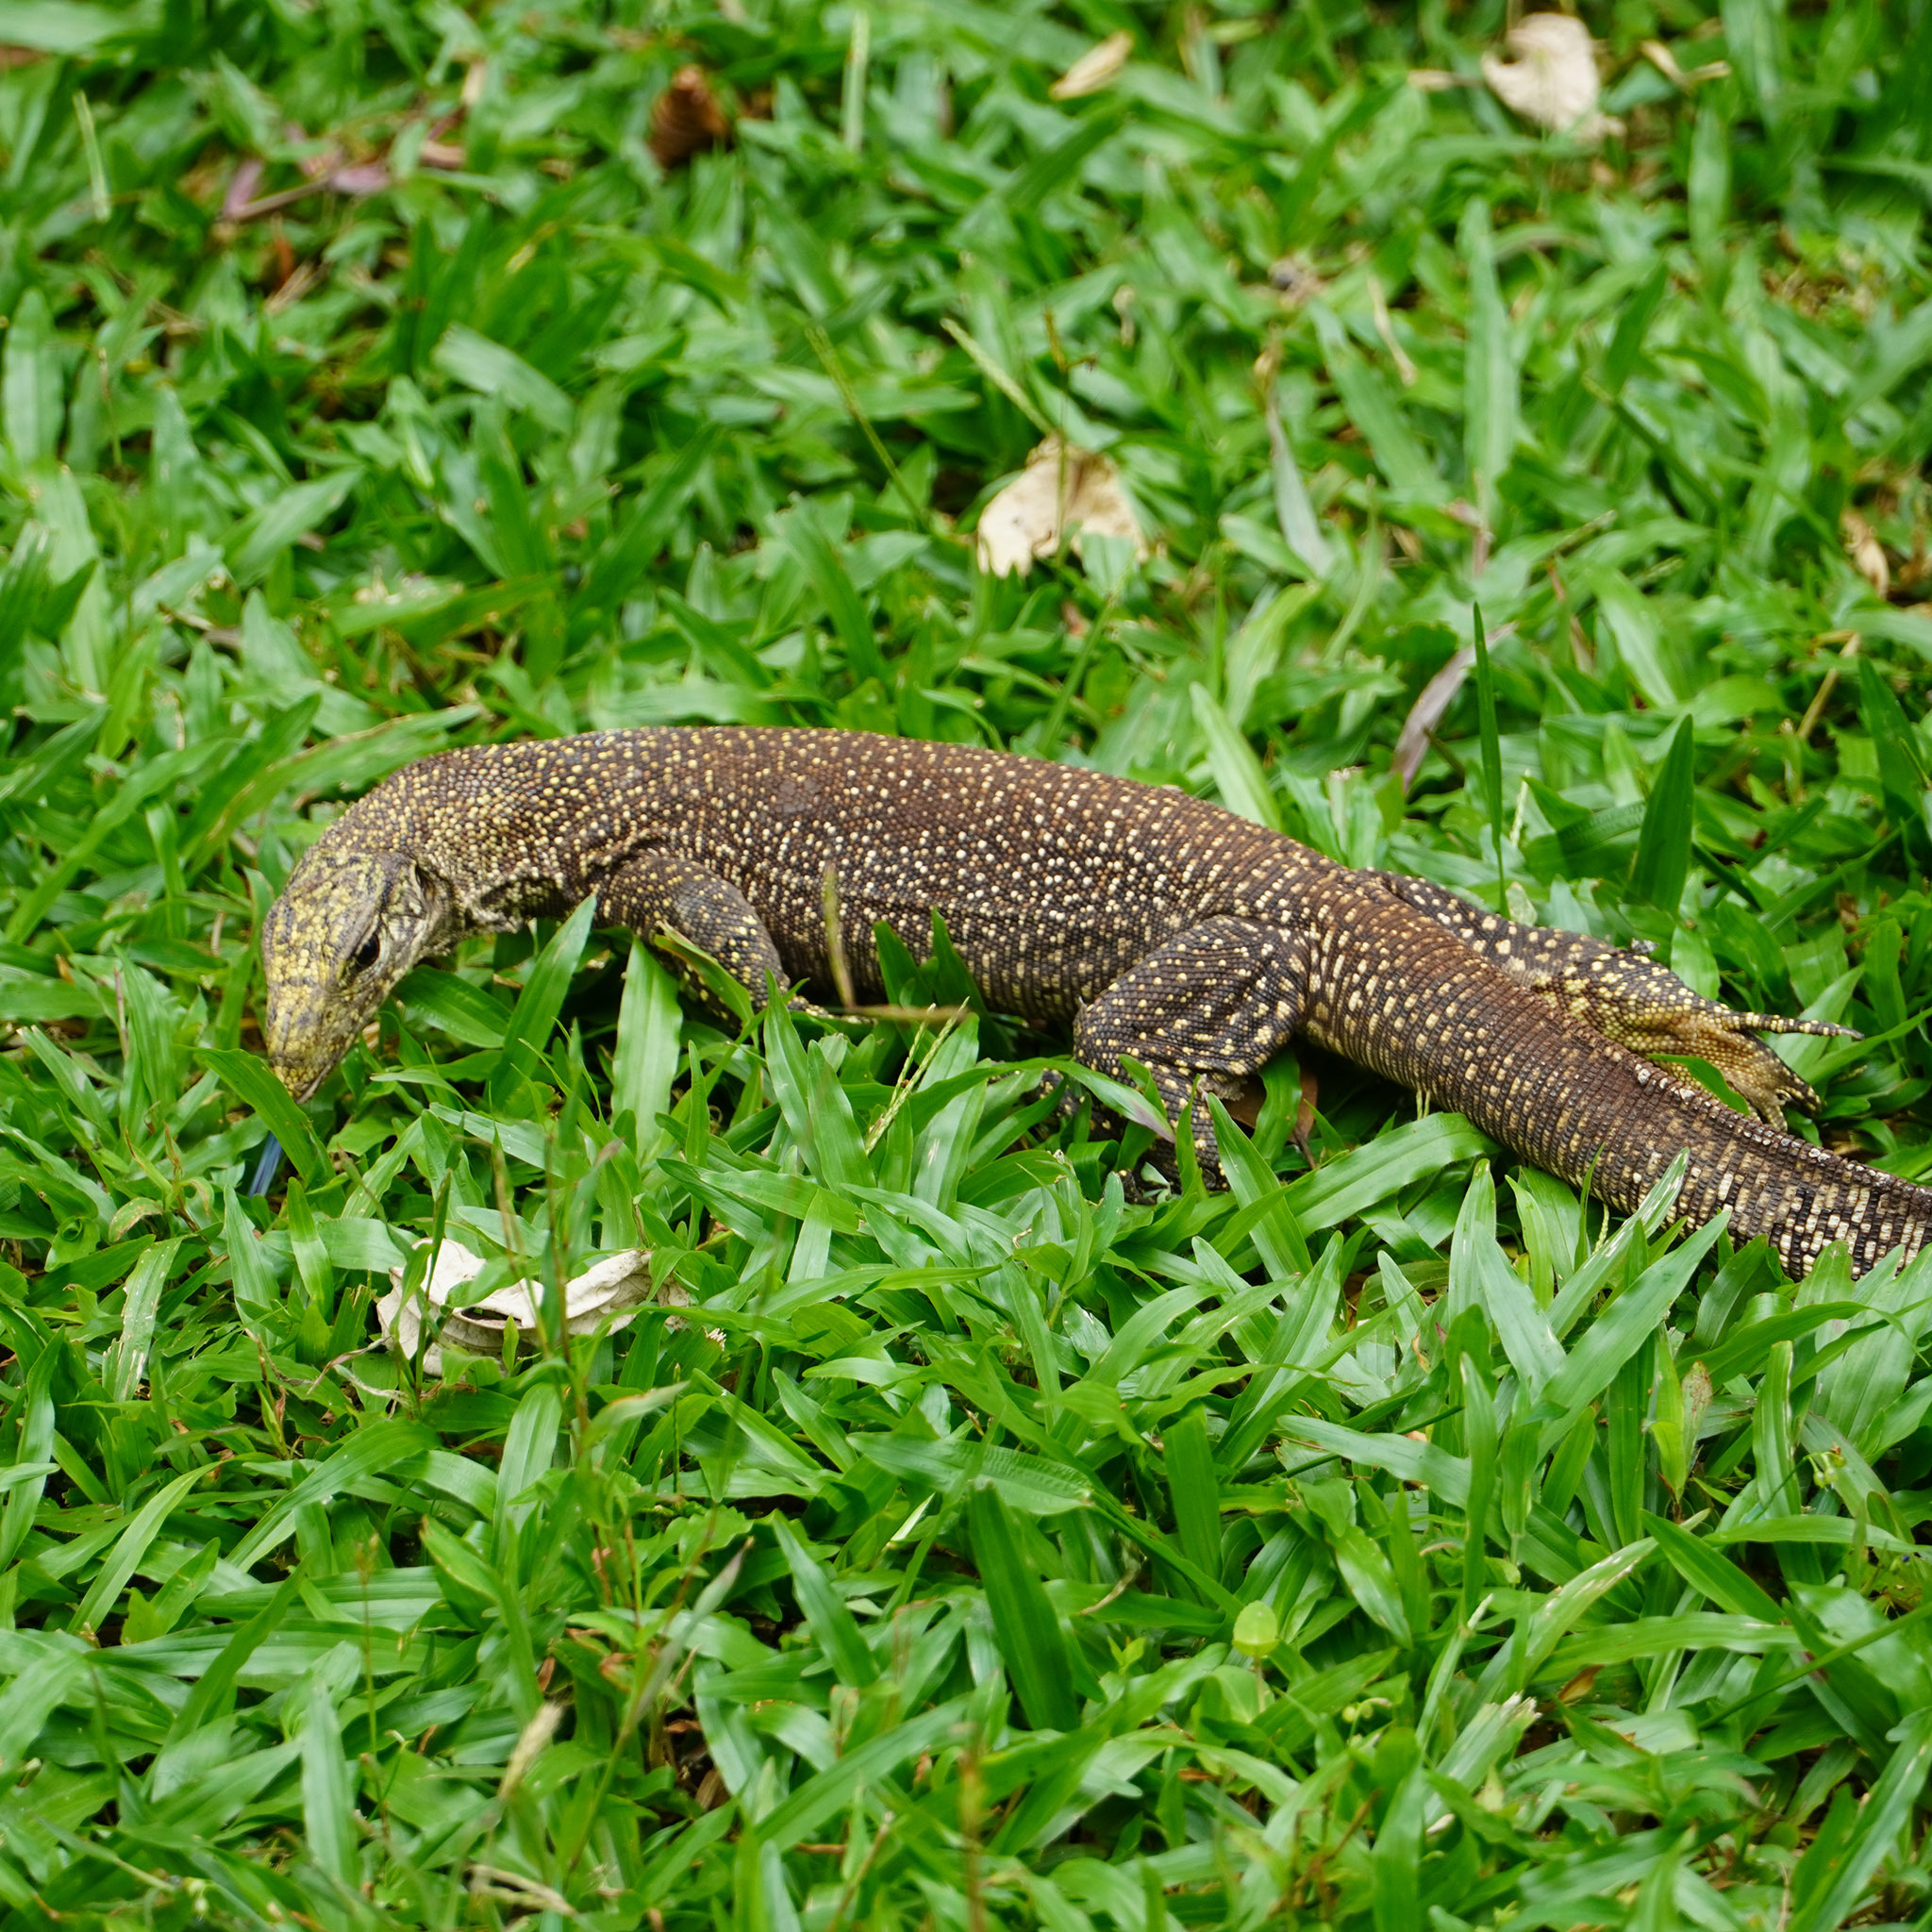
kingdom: Animalia
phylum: Chordata
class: Squamata
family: Varanidae
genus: Varanus
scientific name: Varanus nebulosus
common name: Clouded monitor
